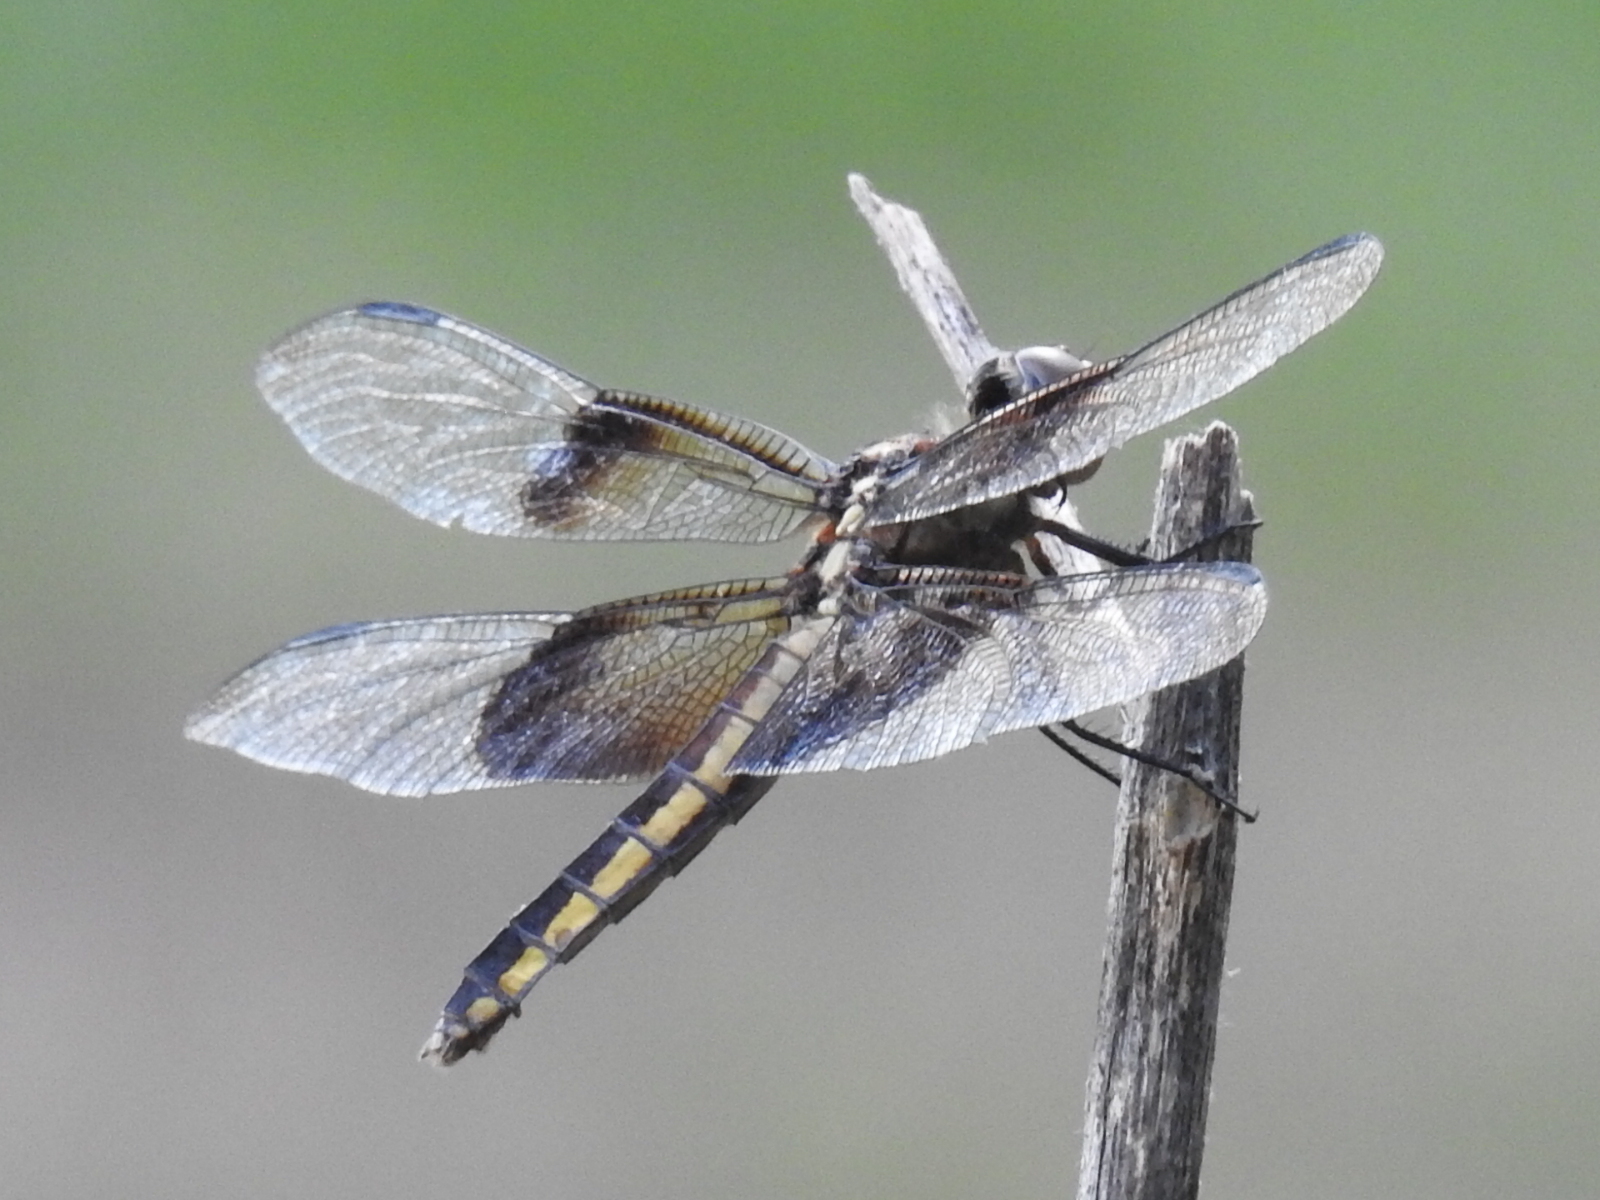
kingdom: Animalia
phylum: Arthropoda
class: Insecta
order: Odonata
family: Libellulidae
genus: Libellula
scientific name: Libellula luctuosa
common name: Widow skimmer
